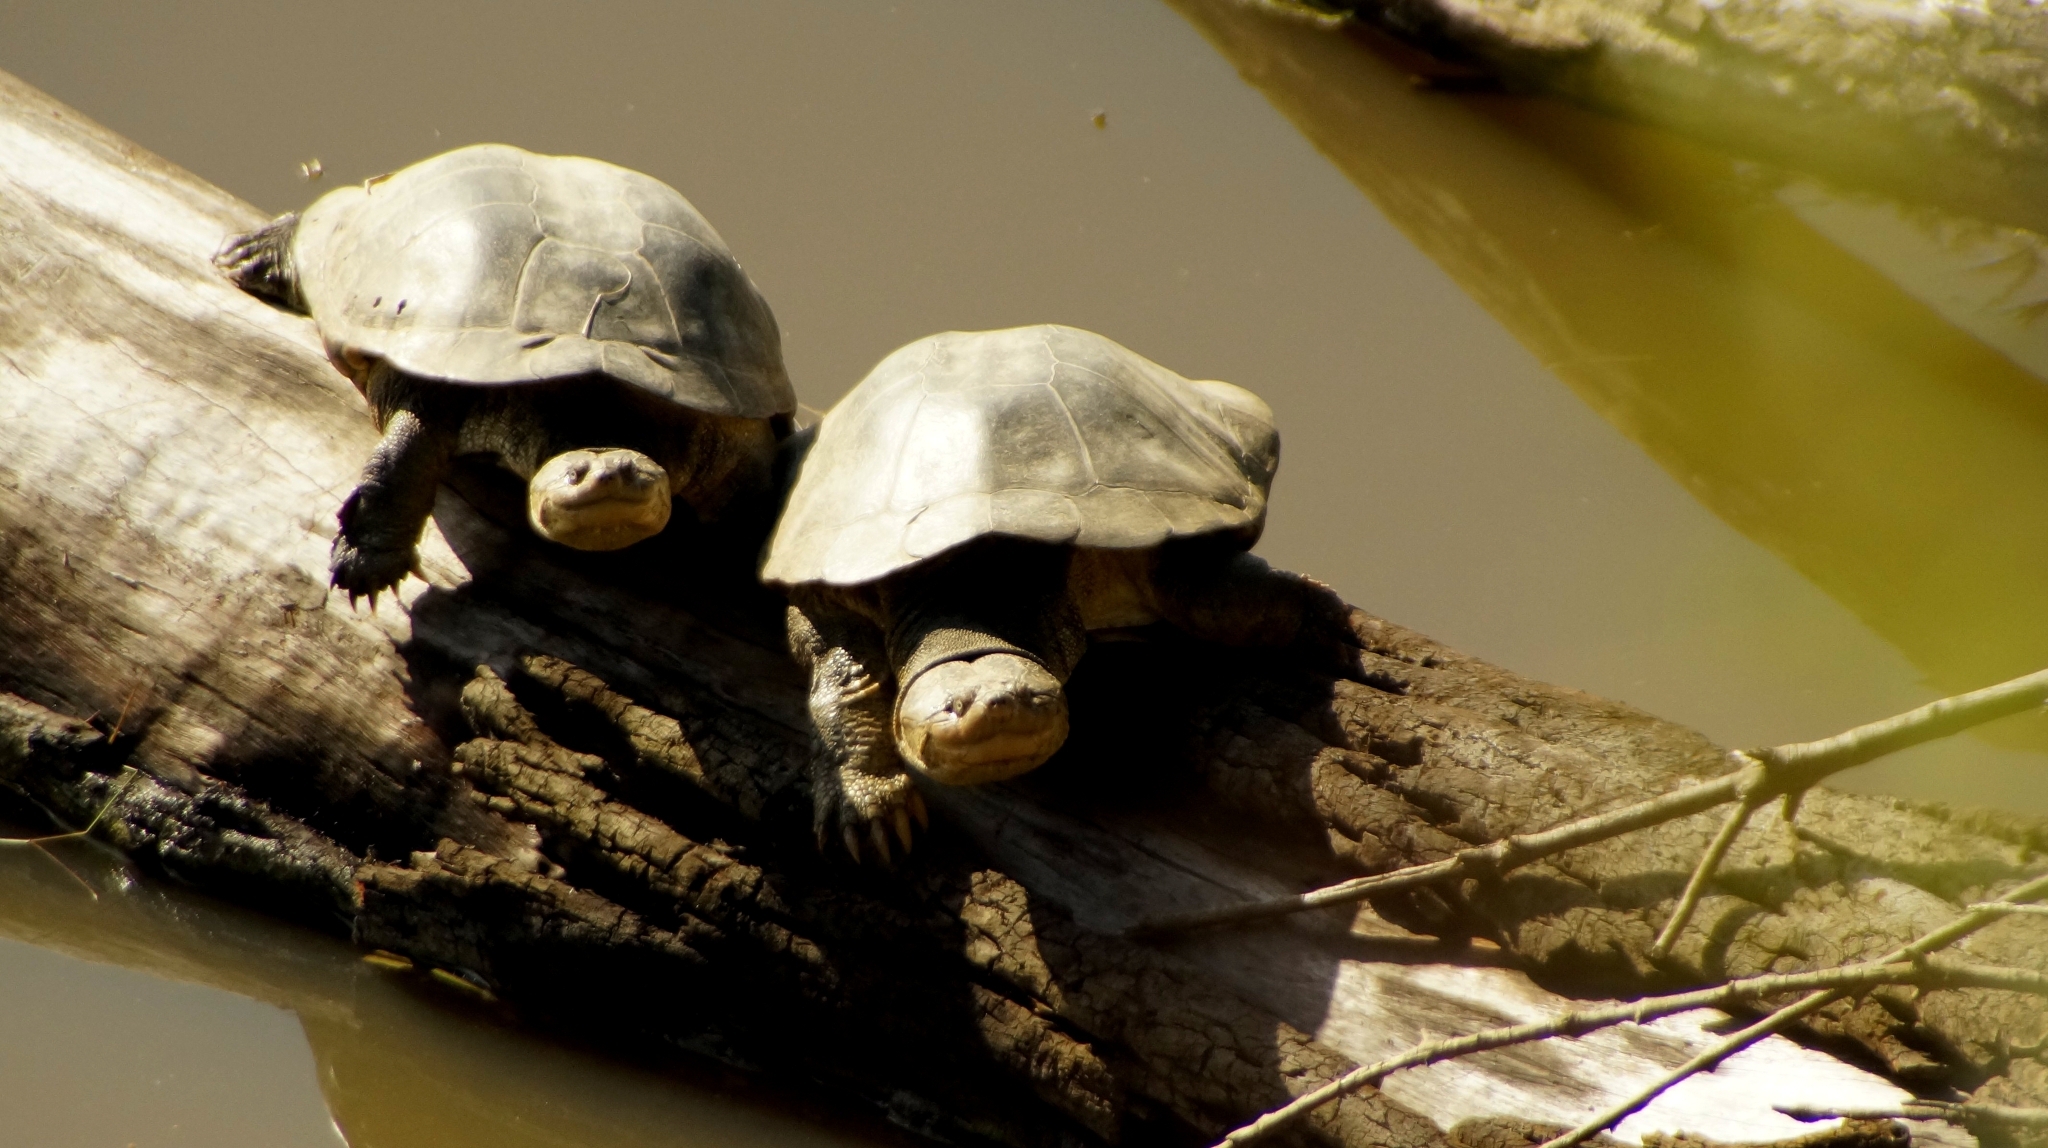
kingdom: Animalia
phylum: Chordata
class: Testudines
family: Pelomedusidae
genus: Pelomedusa
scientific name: Pelomedusa galeata
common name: South african helmeted terrapin
